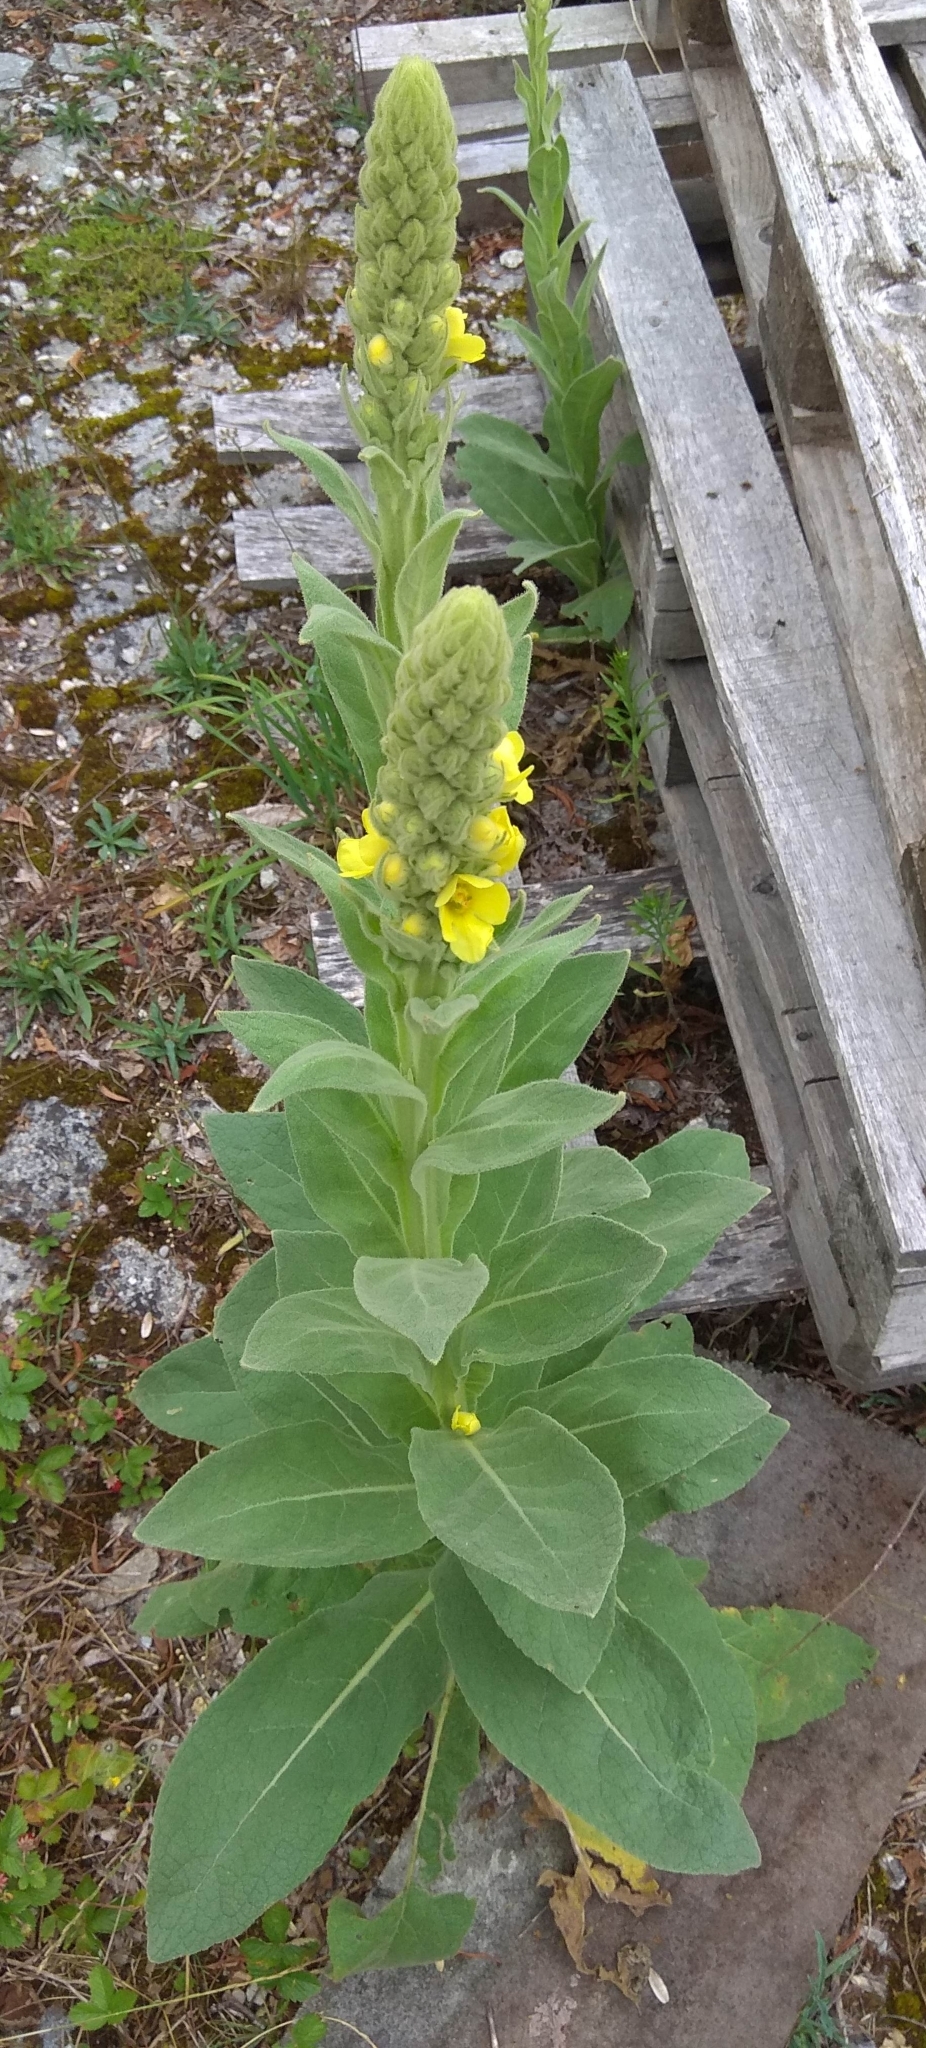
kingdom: Plantae
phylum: Tracheophyta
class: Magnoliopsida
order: Lamiales
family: Scrophulariaceae
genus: Verbascum
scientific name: Verbascum thapsus
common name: Common mullein
